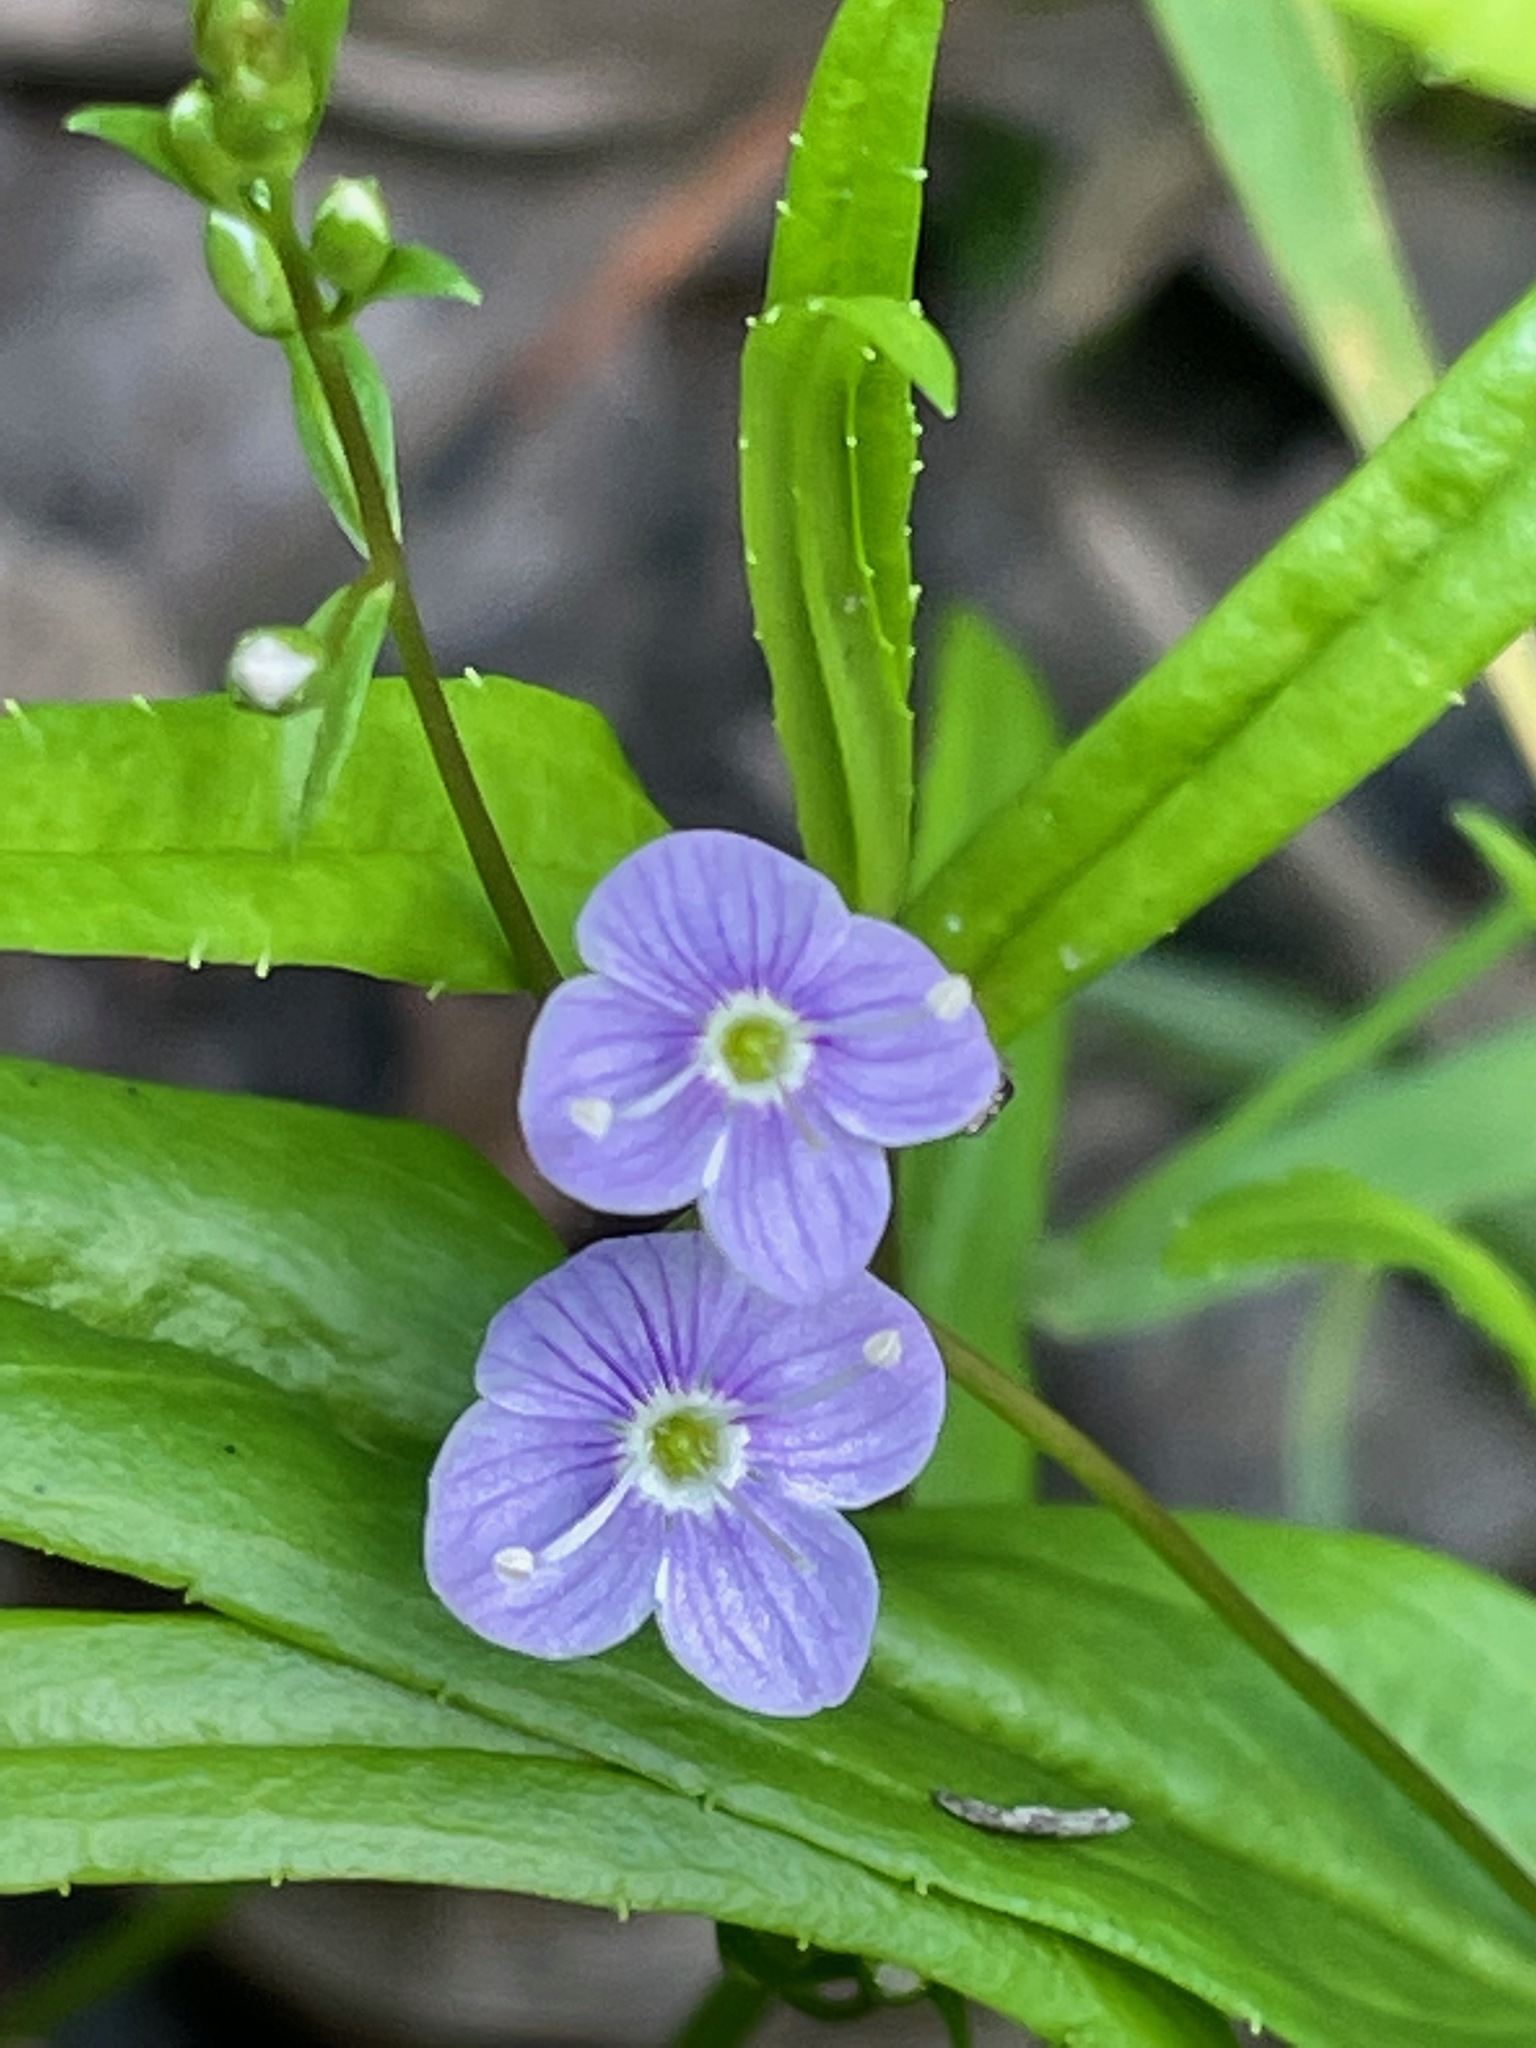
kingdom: Plantae
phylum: Tracheophyta
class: Magnoliopsida
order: Lamiales
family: Plantaginaceae
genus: Veronica
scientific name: Veronica scutellata
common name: Marsh speedwell
